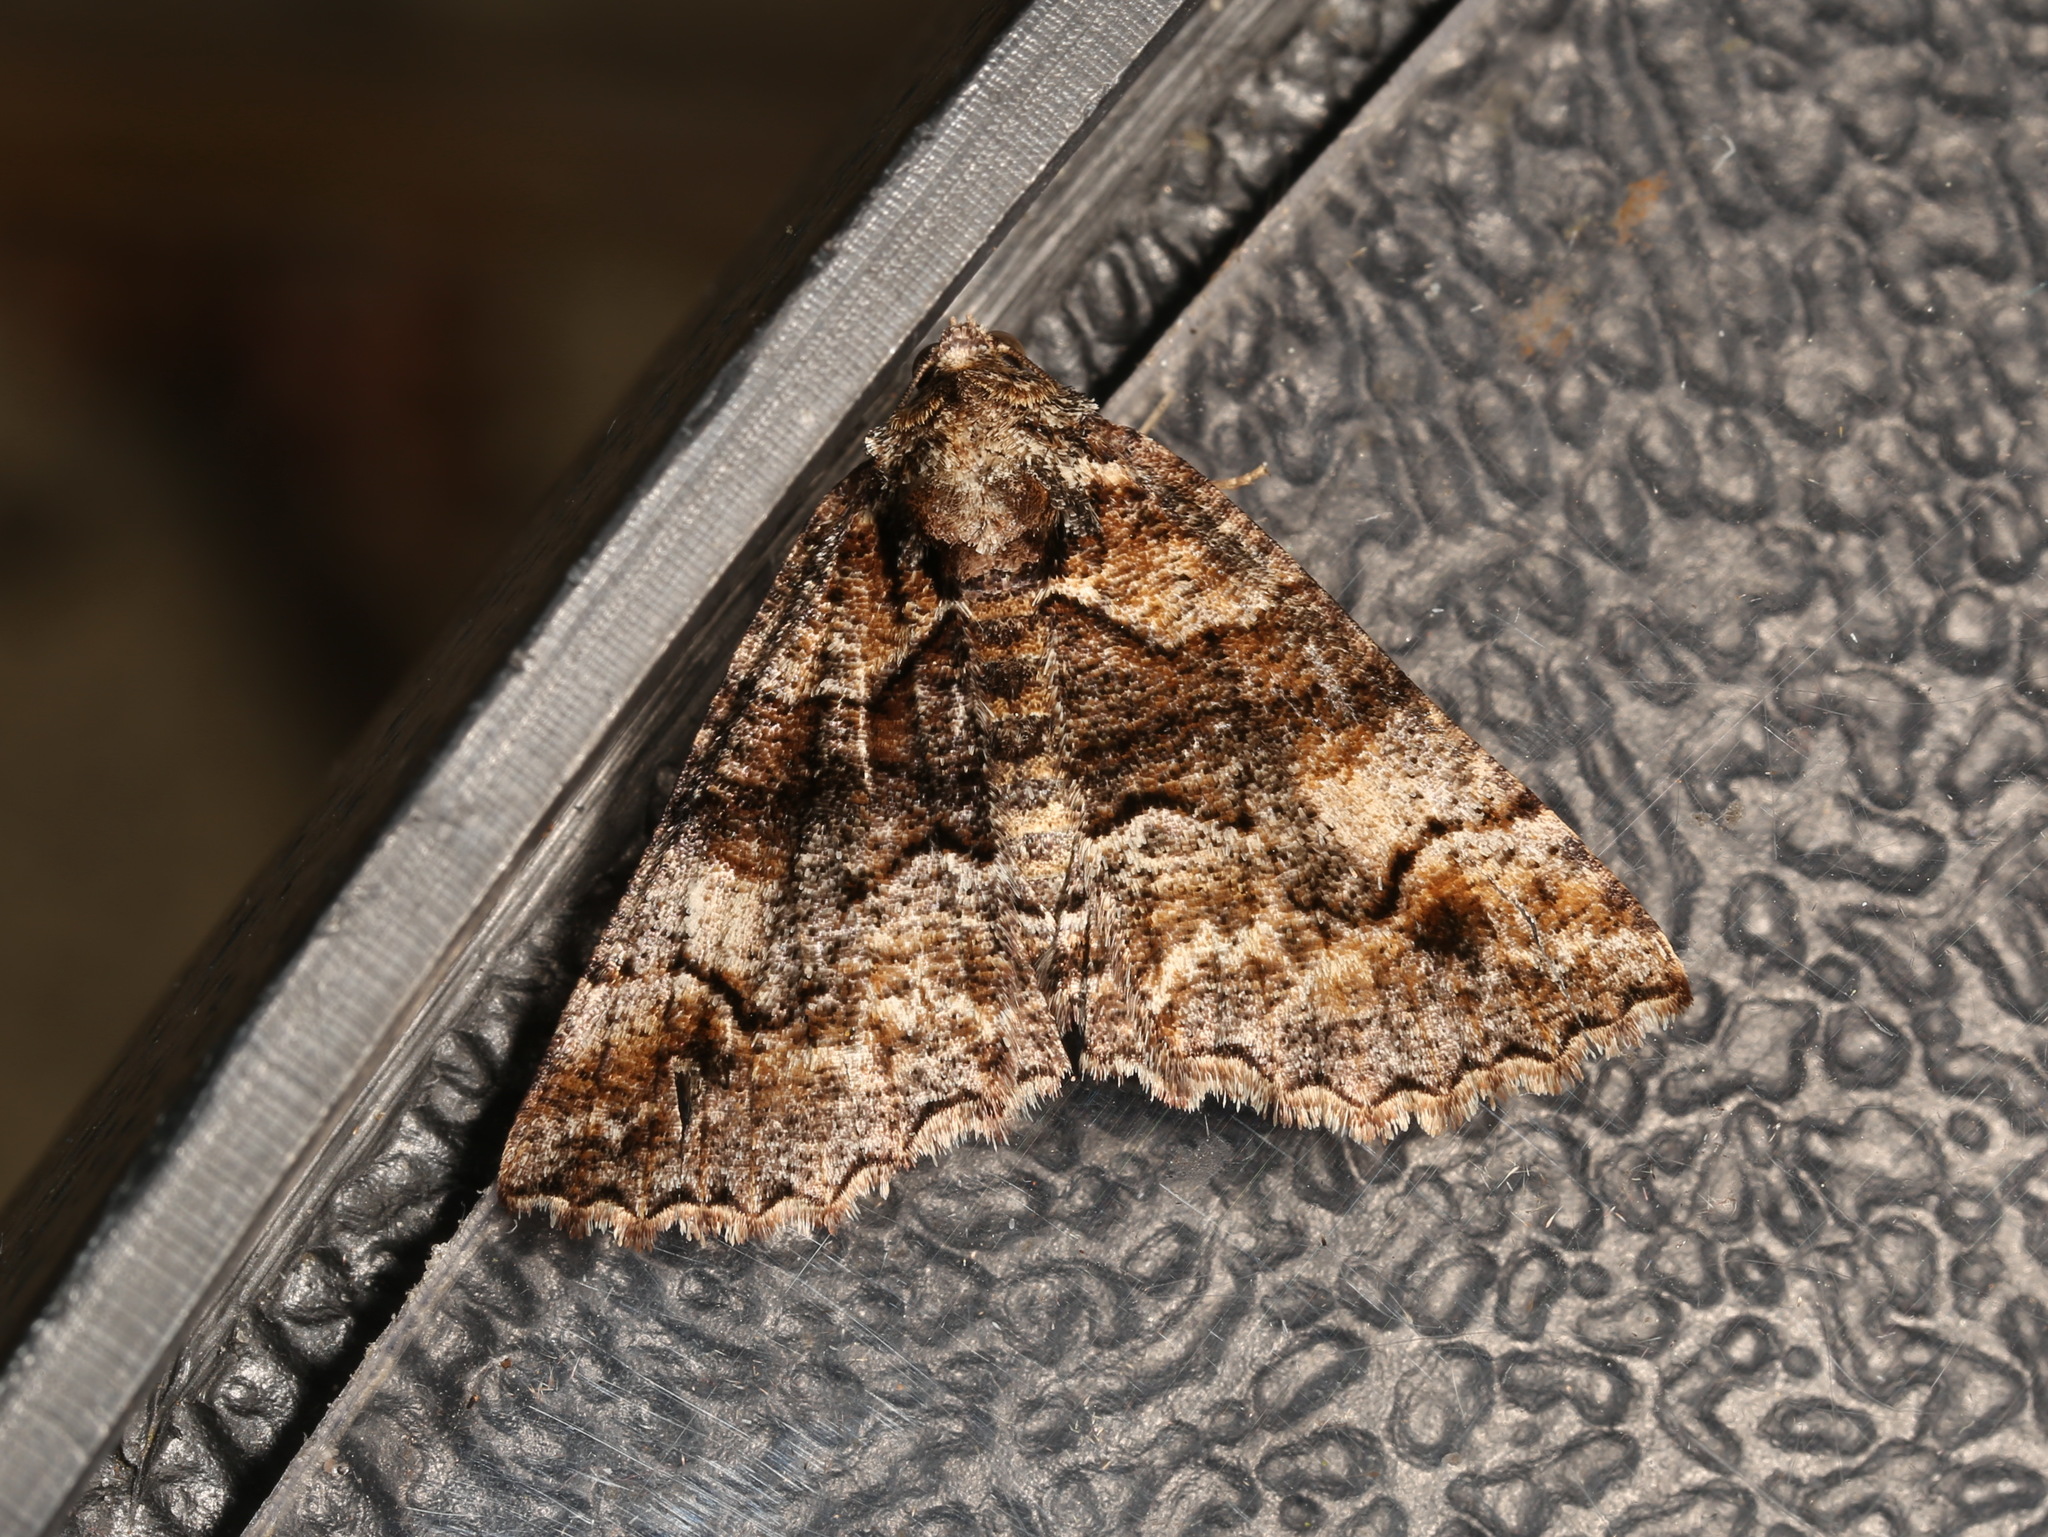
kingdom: Animalia
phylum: Arthropoda
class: Insecta
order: Lepidoptera
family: Geometridae
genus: Gastrina
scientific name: Gastrina cristaria
